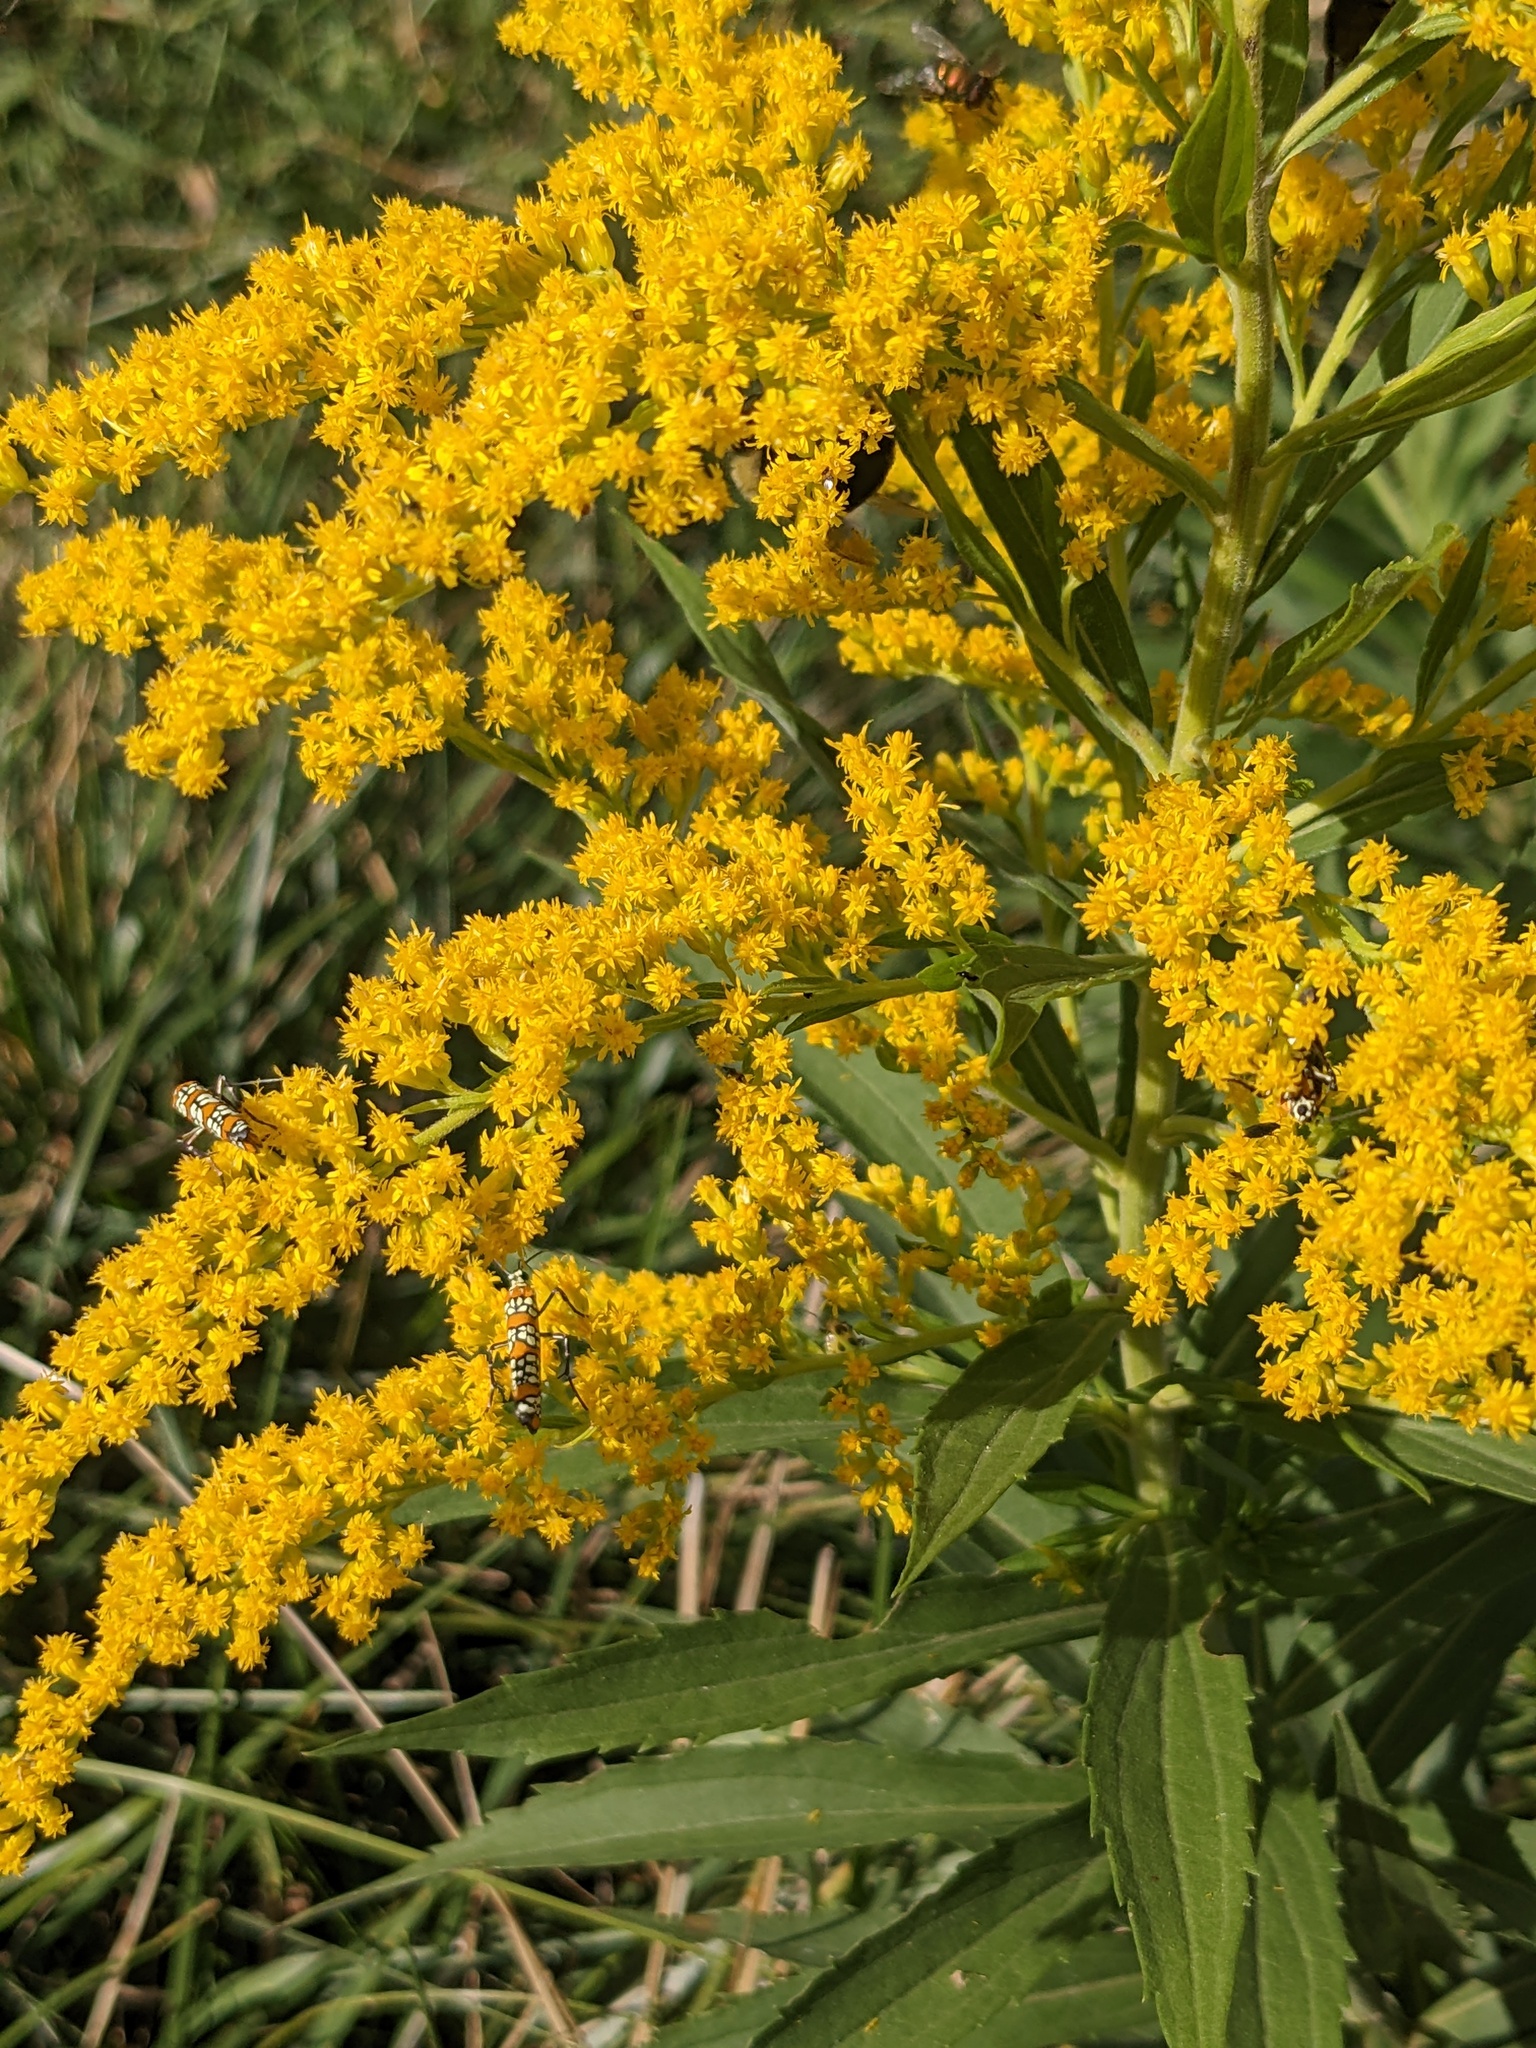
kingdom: Animalia
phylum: Arthropoda
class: Insecta
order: Lepidoptera
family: Attevidae
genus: Atteva
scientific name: Atteva punctella
